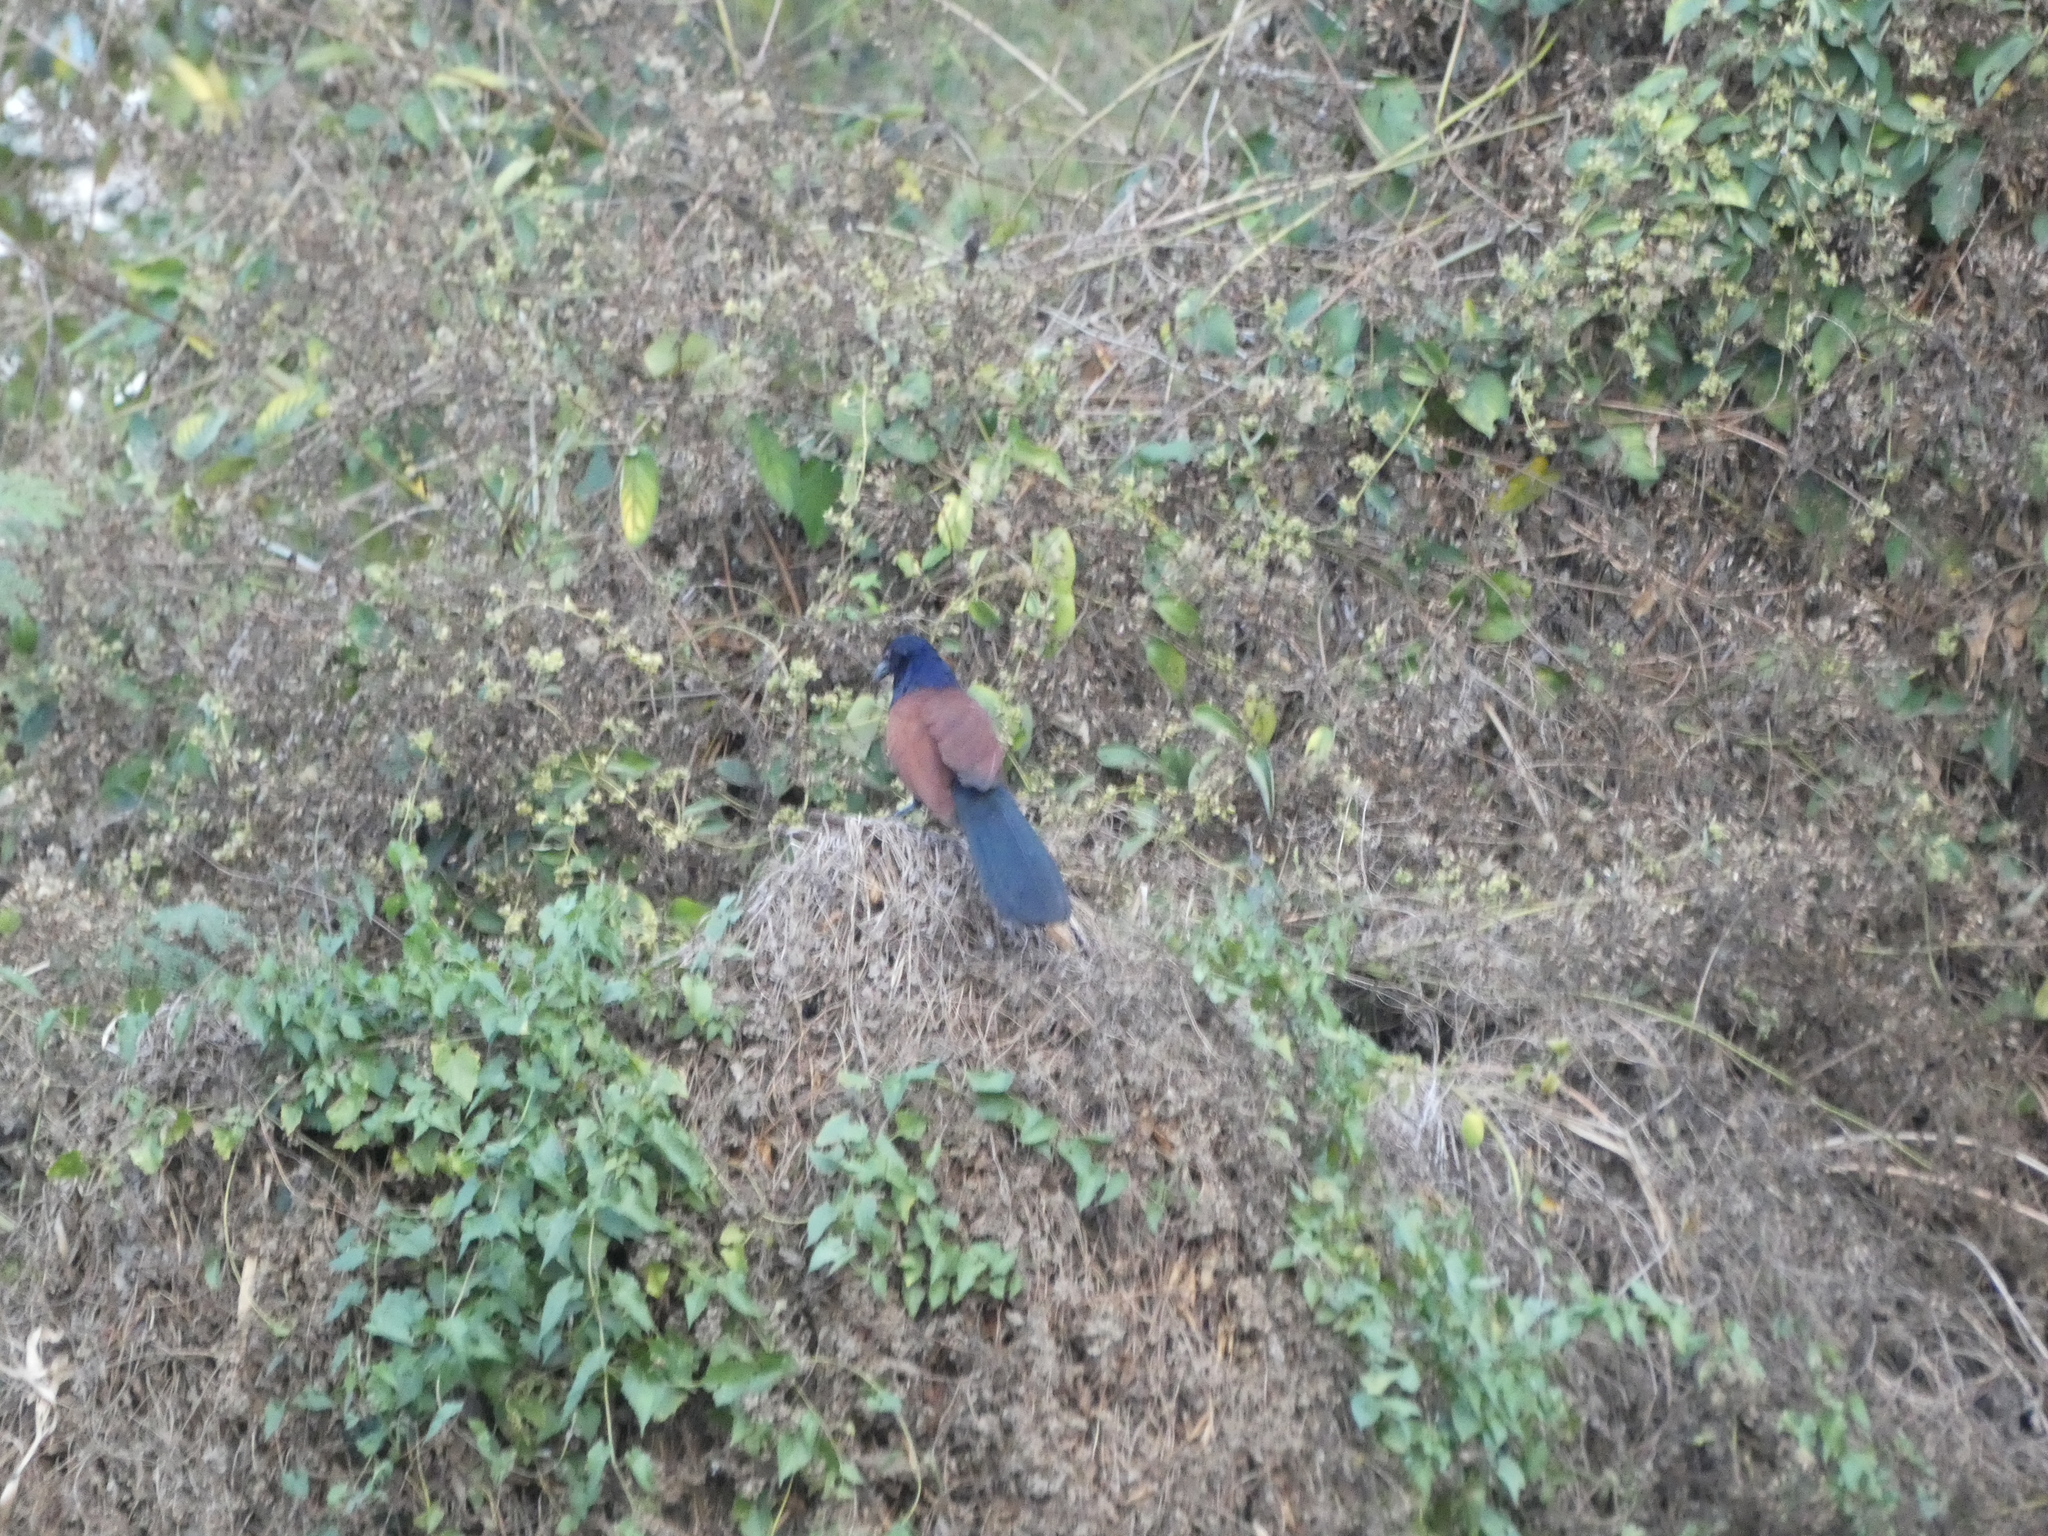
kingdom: Animalia
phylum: Chordata
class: Aves
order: Cuculiformes
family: Cuculidae
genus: Centropus
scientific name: Centropus sinensis
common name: Greater coucal
